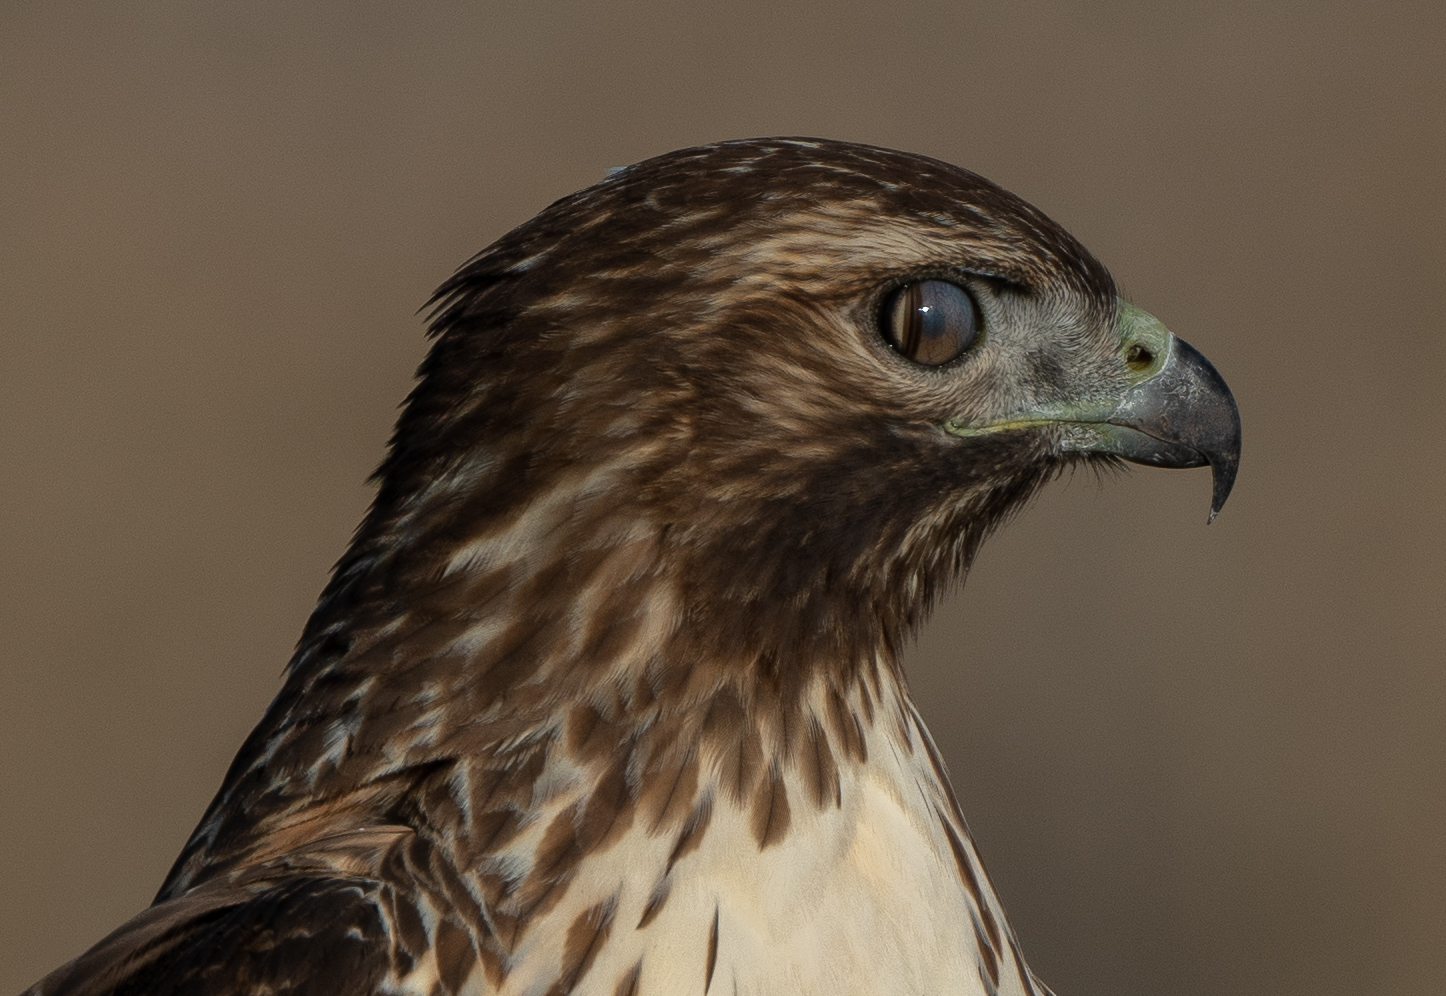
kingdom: Animalia
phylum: Chordata
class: Aves
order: Accipitriformes
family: Accipitridae
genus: Buteo
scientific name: Buteo jamaicensis
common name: Red-tailed hawk
